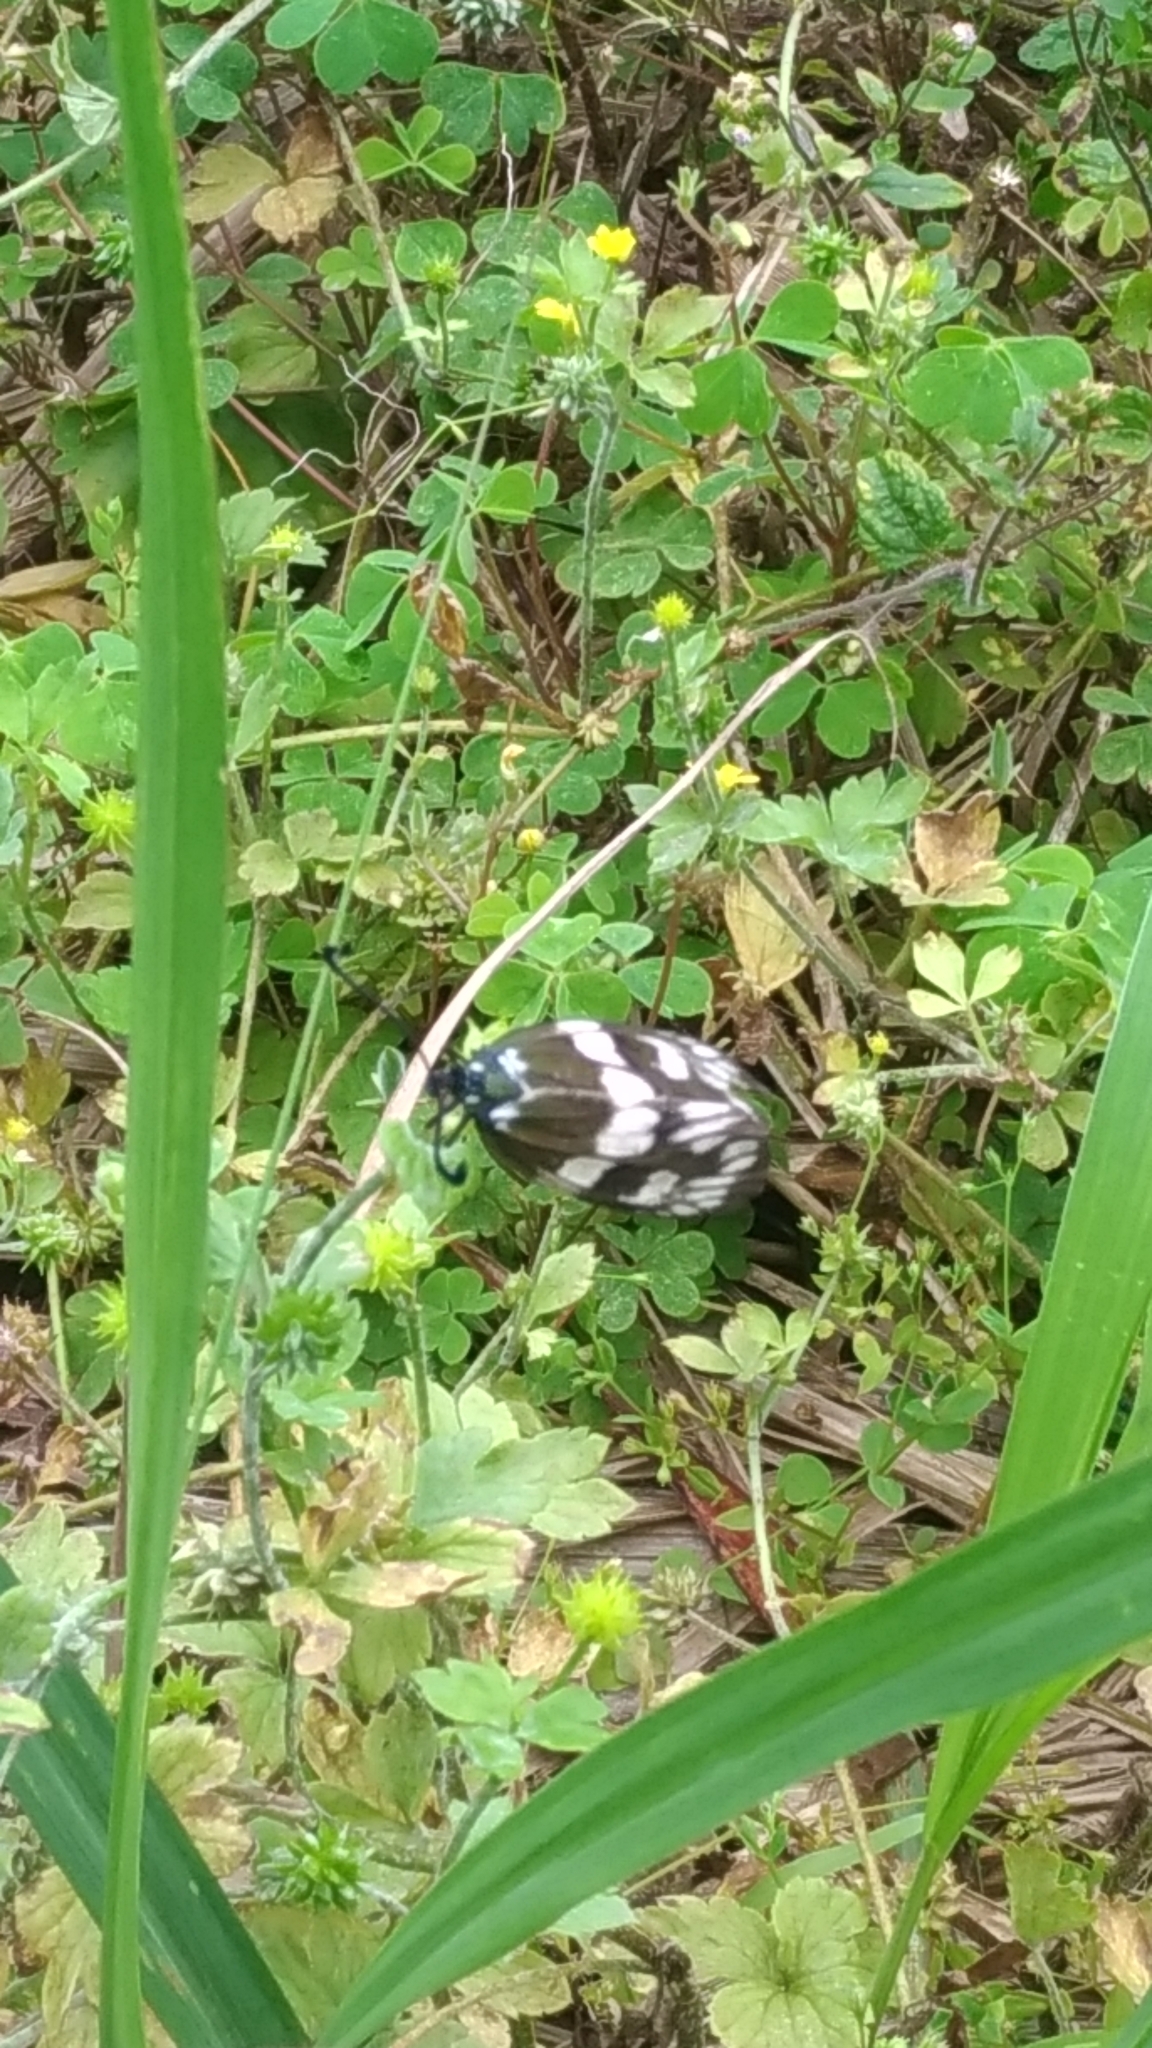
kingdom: Animalia
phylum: Arthropoda
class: Insecta
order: Lepidoptera
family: Zygaenidae
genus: Eterusia
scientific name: Eterusia aedea
